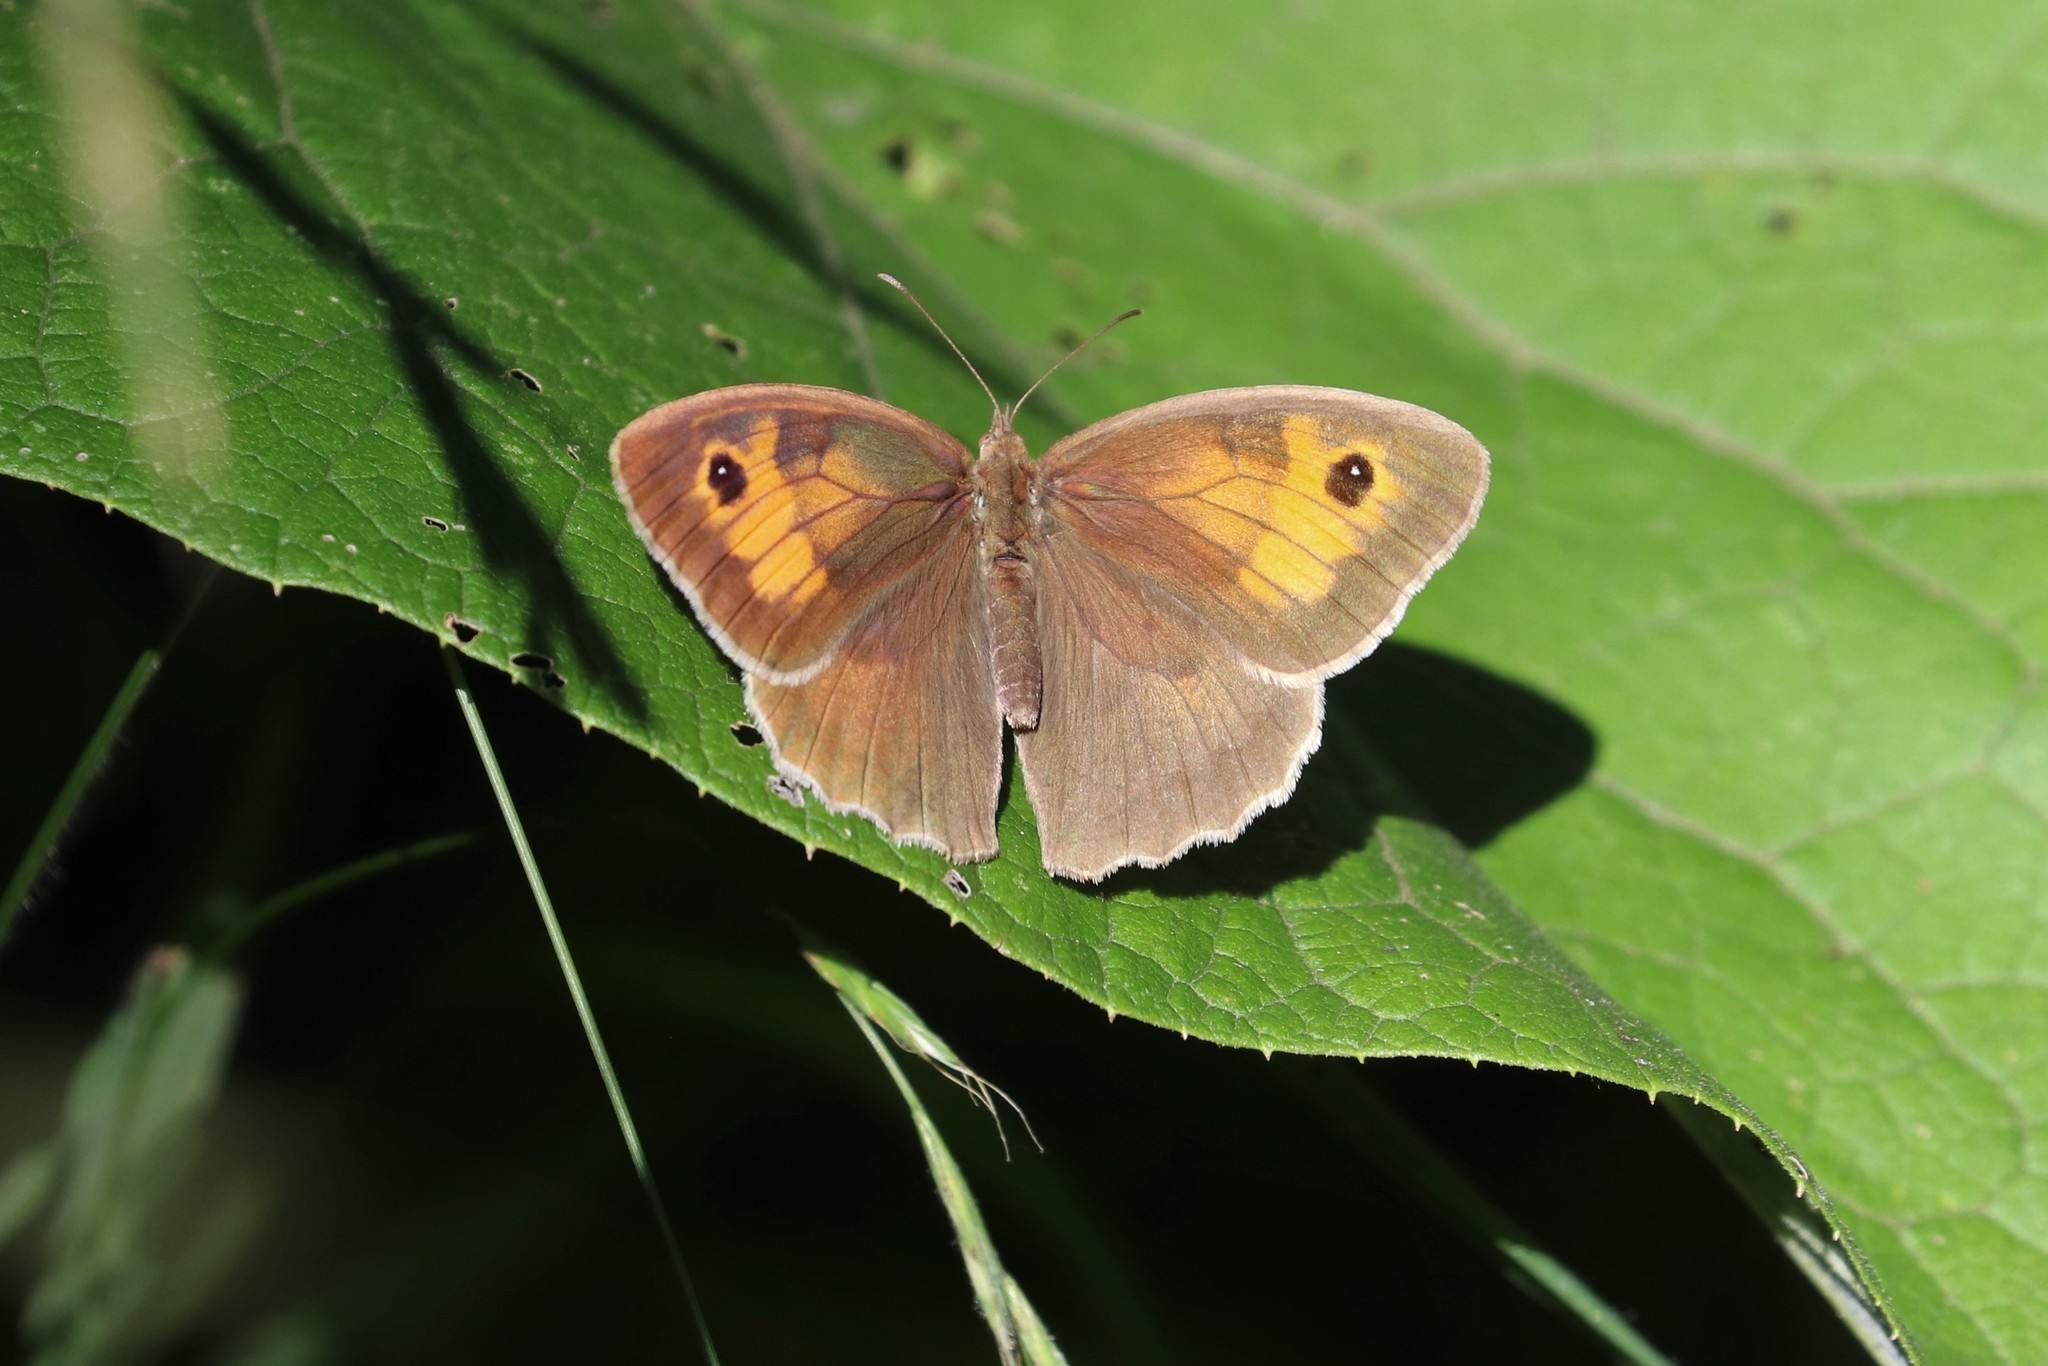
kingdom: Animalia
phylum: Arthropoda
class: Insecta
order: Lepidoptera
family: Nymphalidae
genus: Maniola
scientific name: Maniola jurtina
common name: Meadow brown
